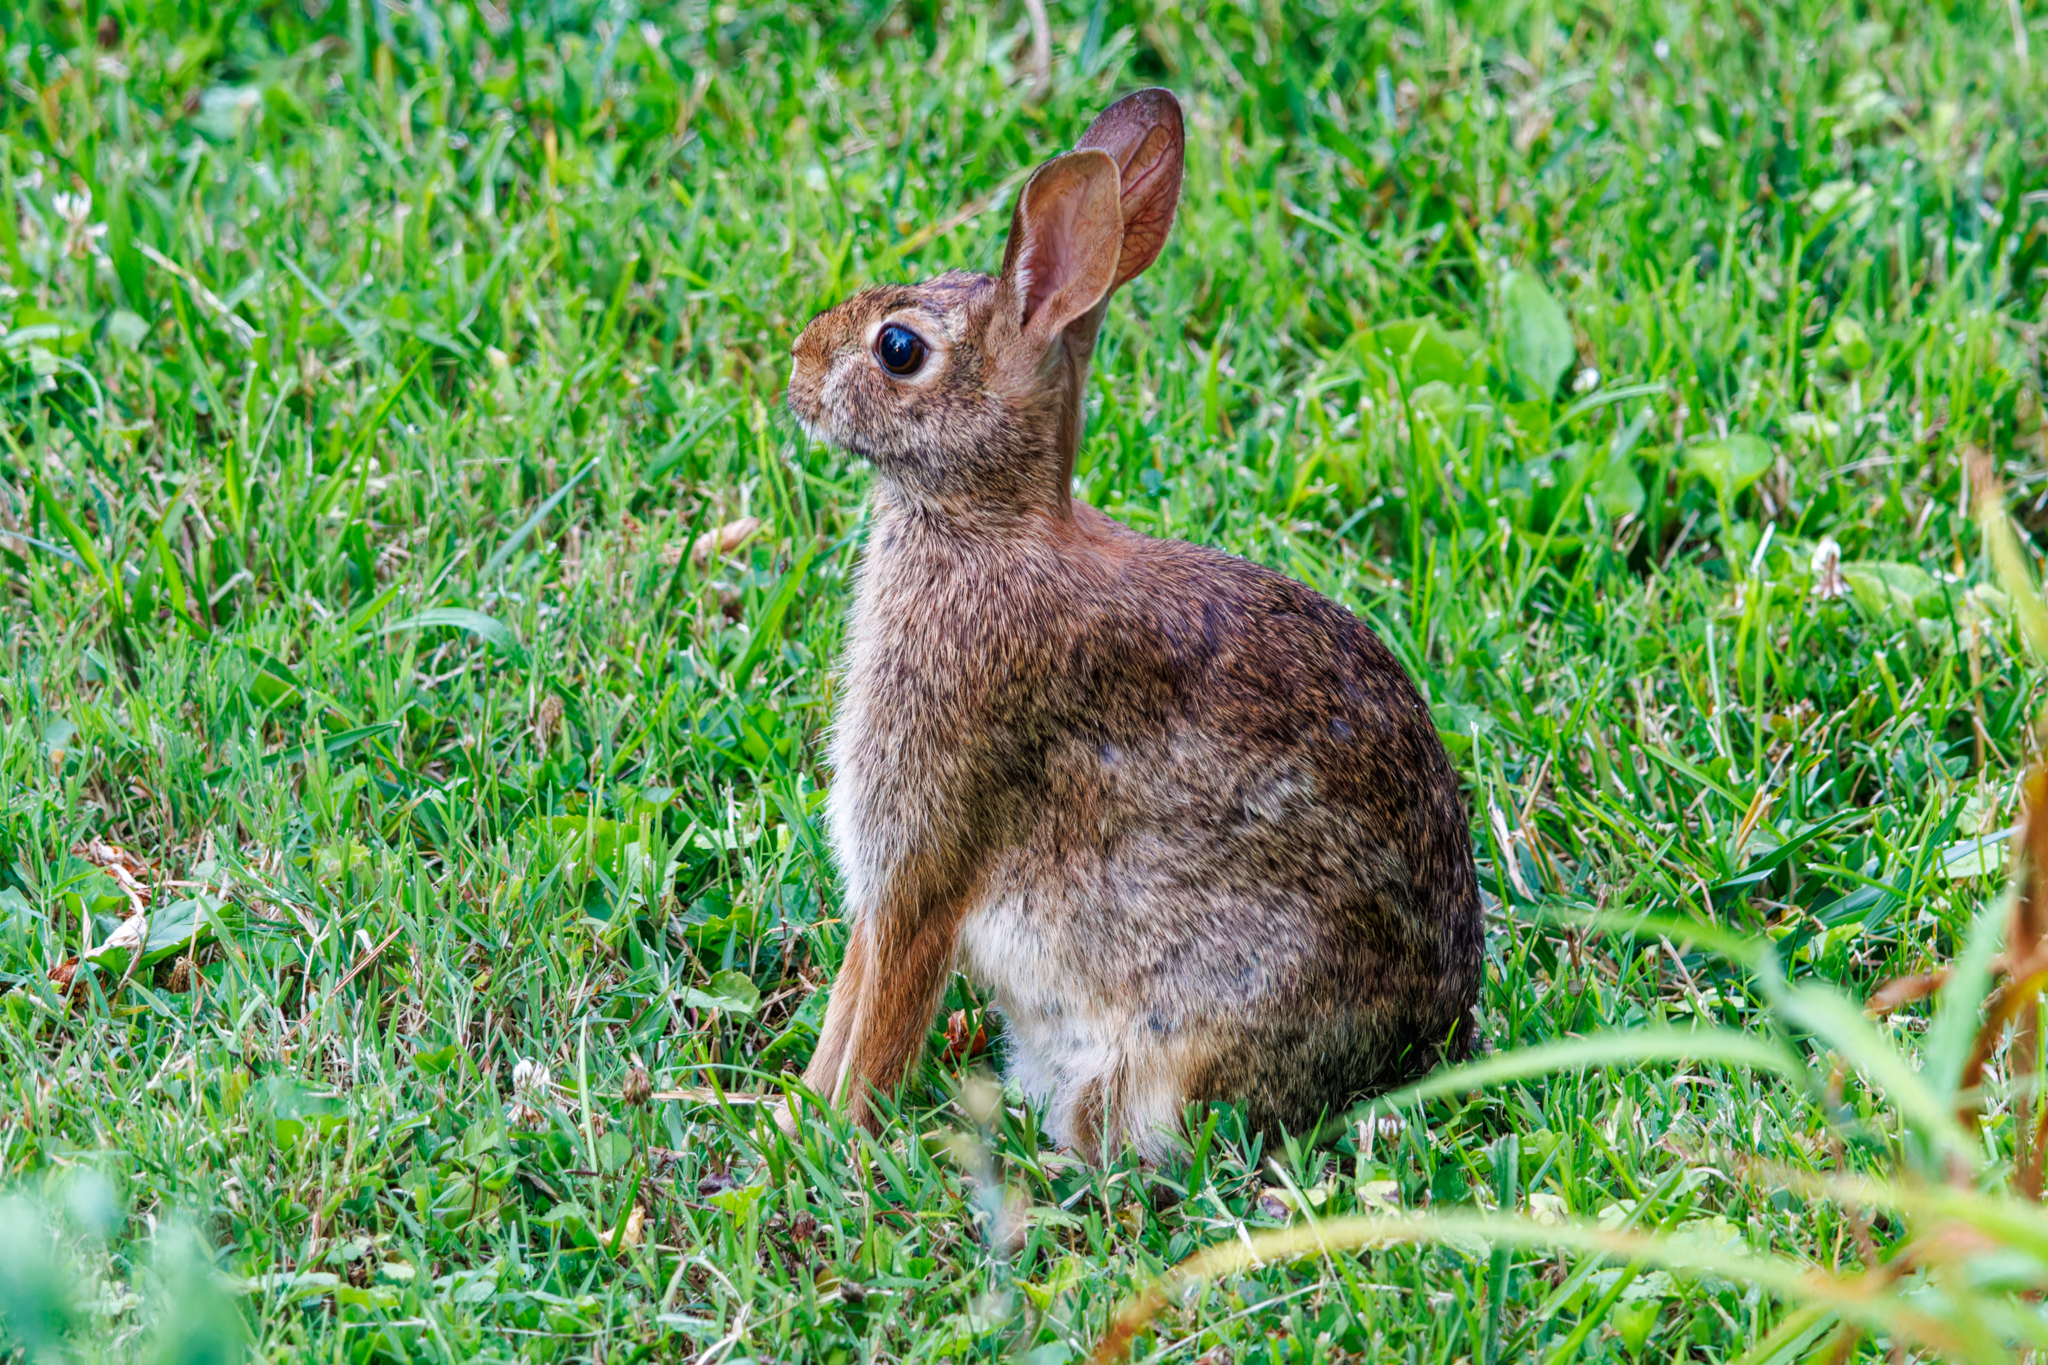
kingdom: Animalia
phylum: Chordata
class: Mammalia
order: Lagomorpha
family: Leporidae
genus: Sylvilagus
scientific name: Sylvilagus floridanus
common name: Eastern cottontail
